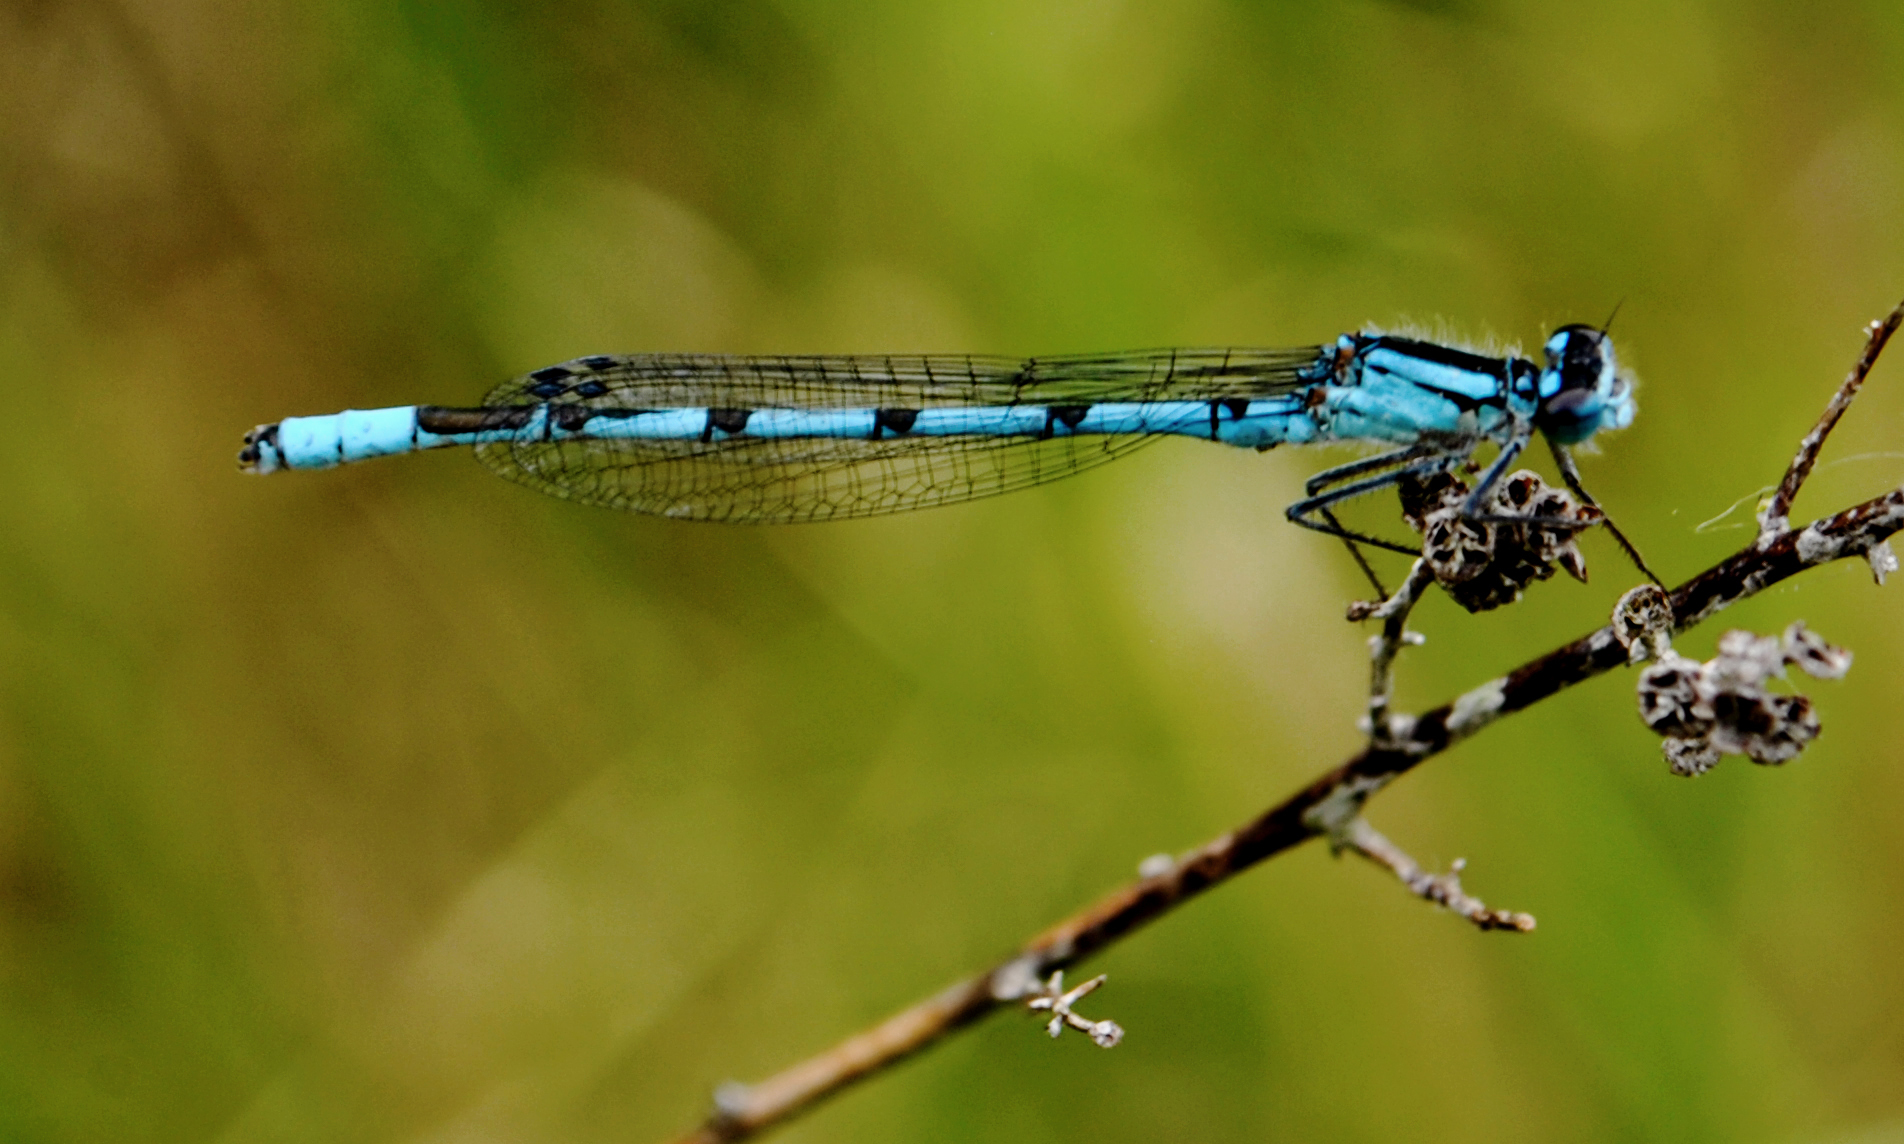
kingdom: Animalia
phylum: Arthropoda
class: Insecta
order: Odonata
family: Coenagrionidae
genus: Enallagma
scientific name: Enallagma boreale
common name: Boreal bluet
